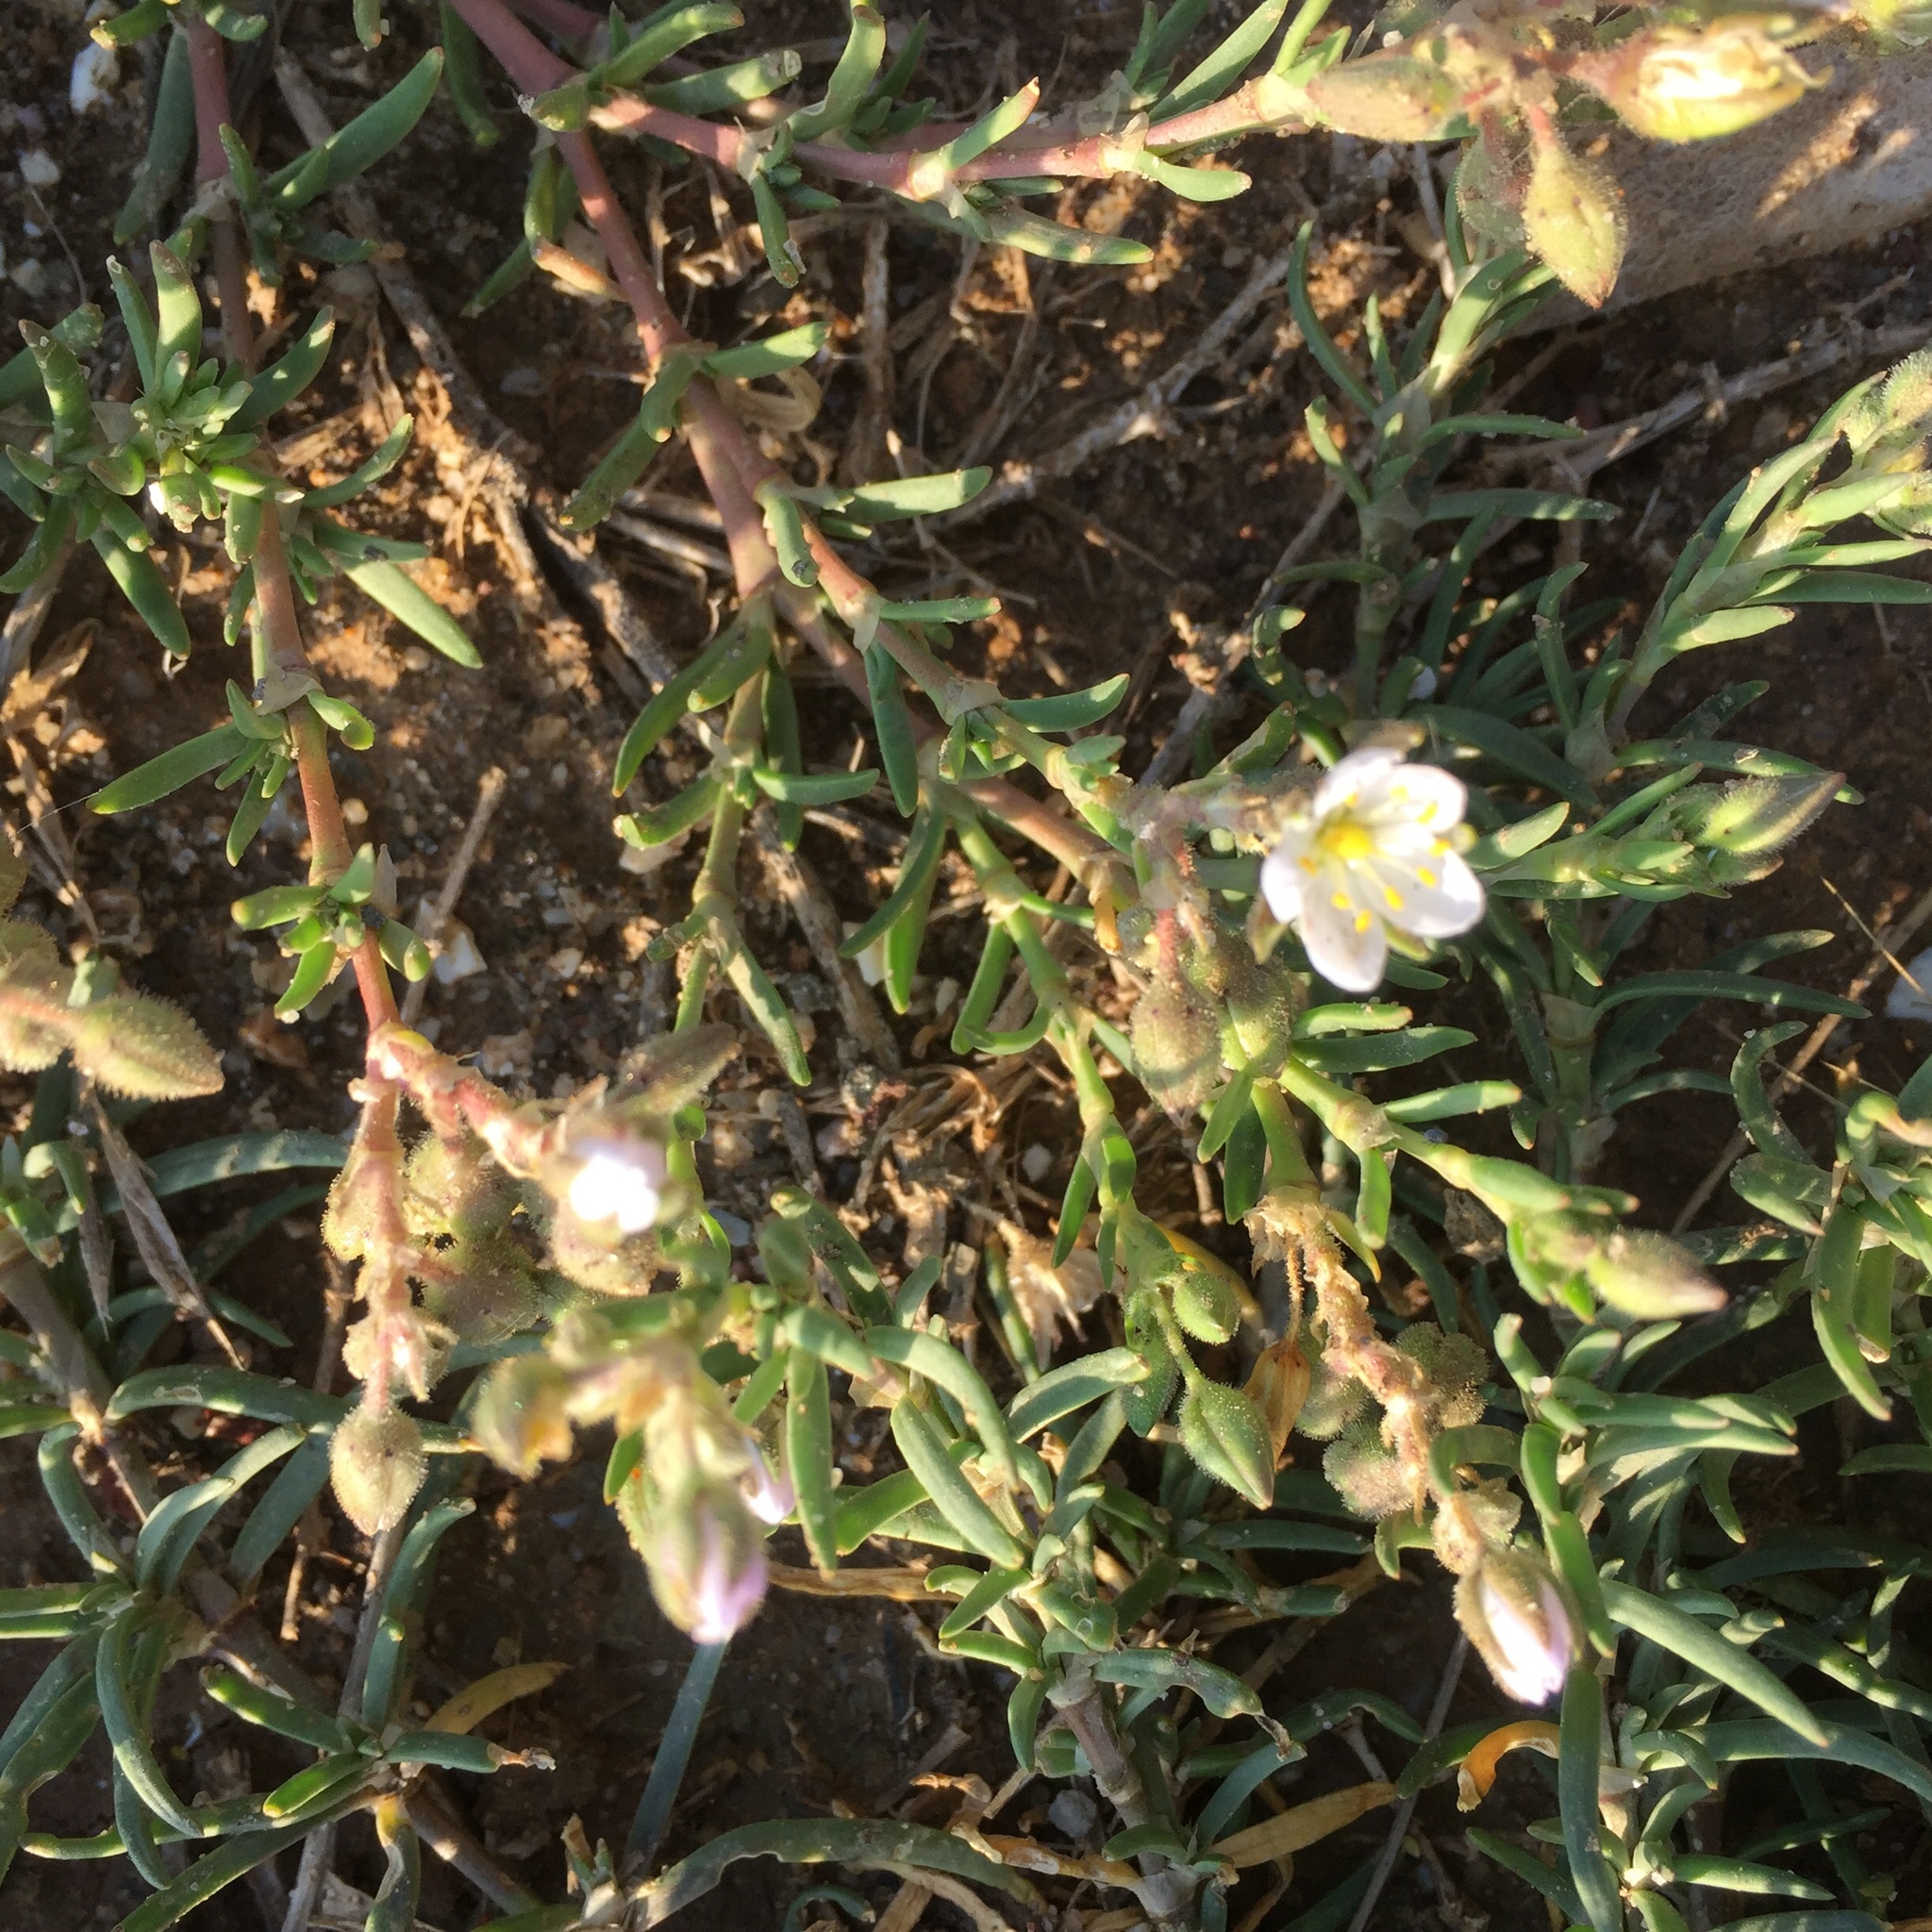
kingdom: Plantae
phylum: Tracheophyta
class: Magnoliopsida
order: Caryophyllales
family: Caryophyllaceae
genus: Spergularia
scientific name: Spergularia media
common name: Greater sea-spurrey
